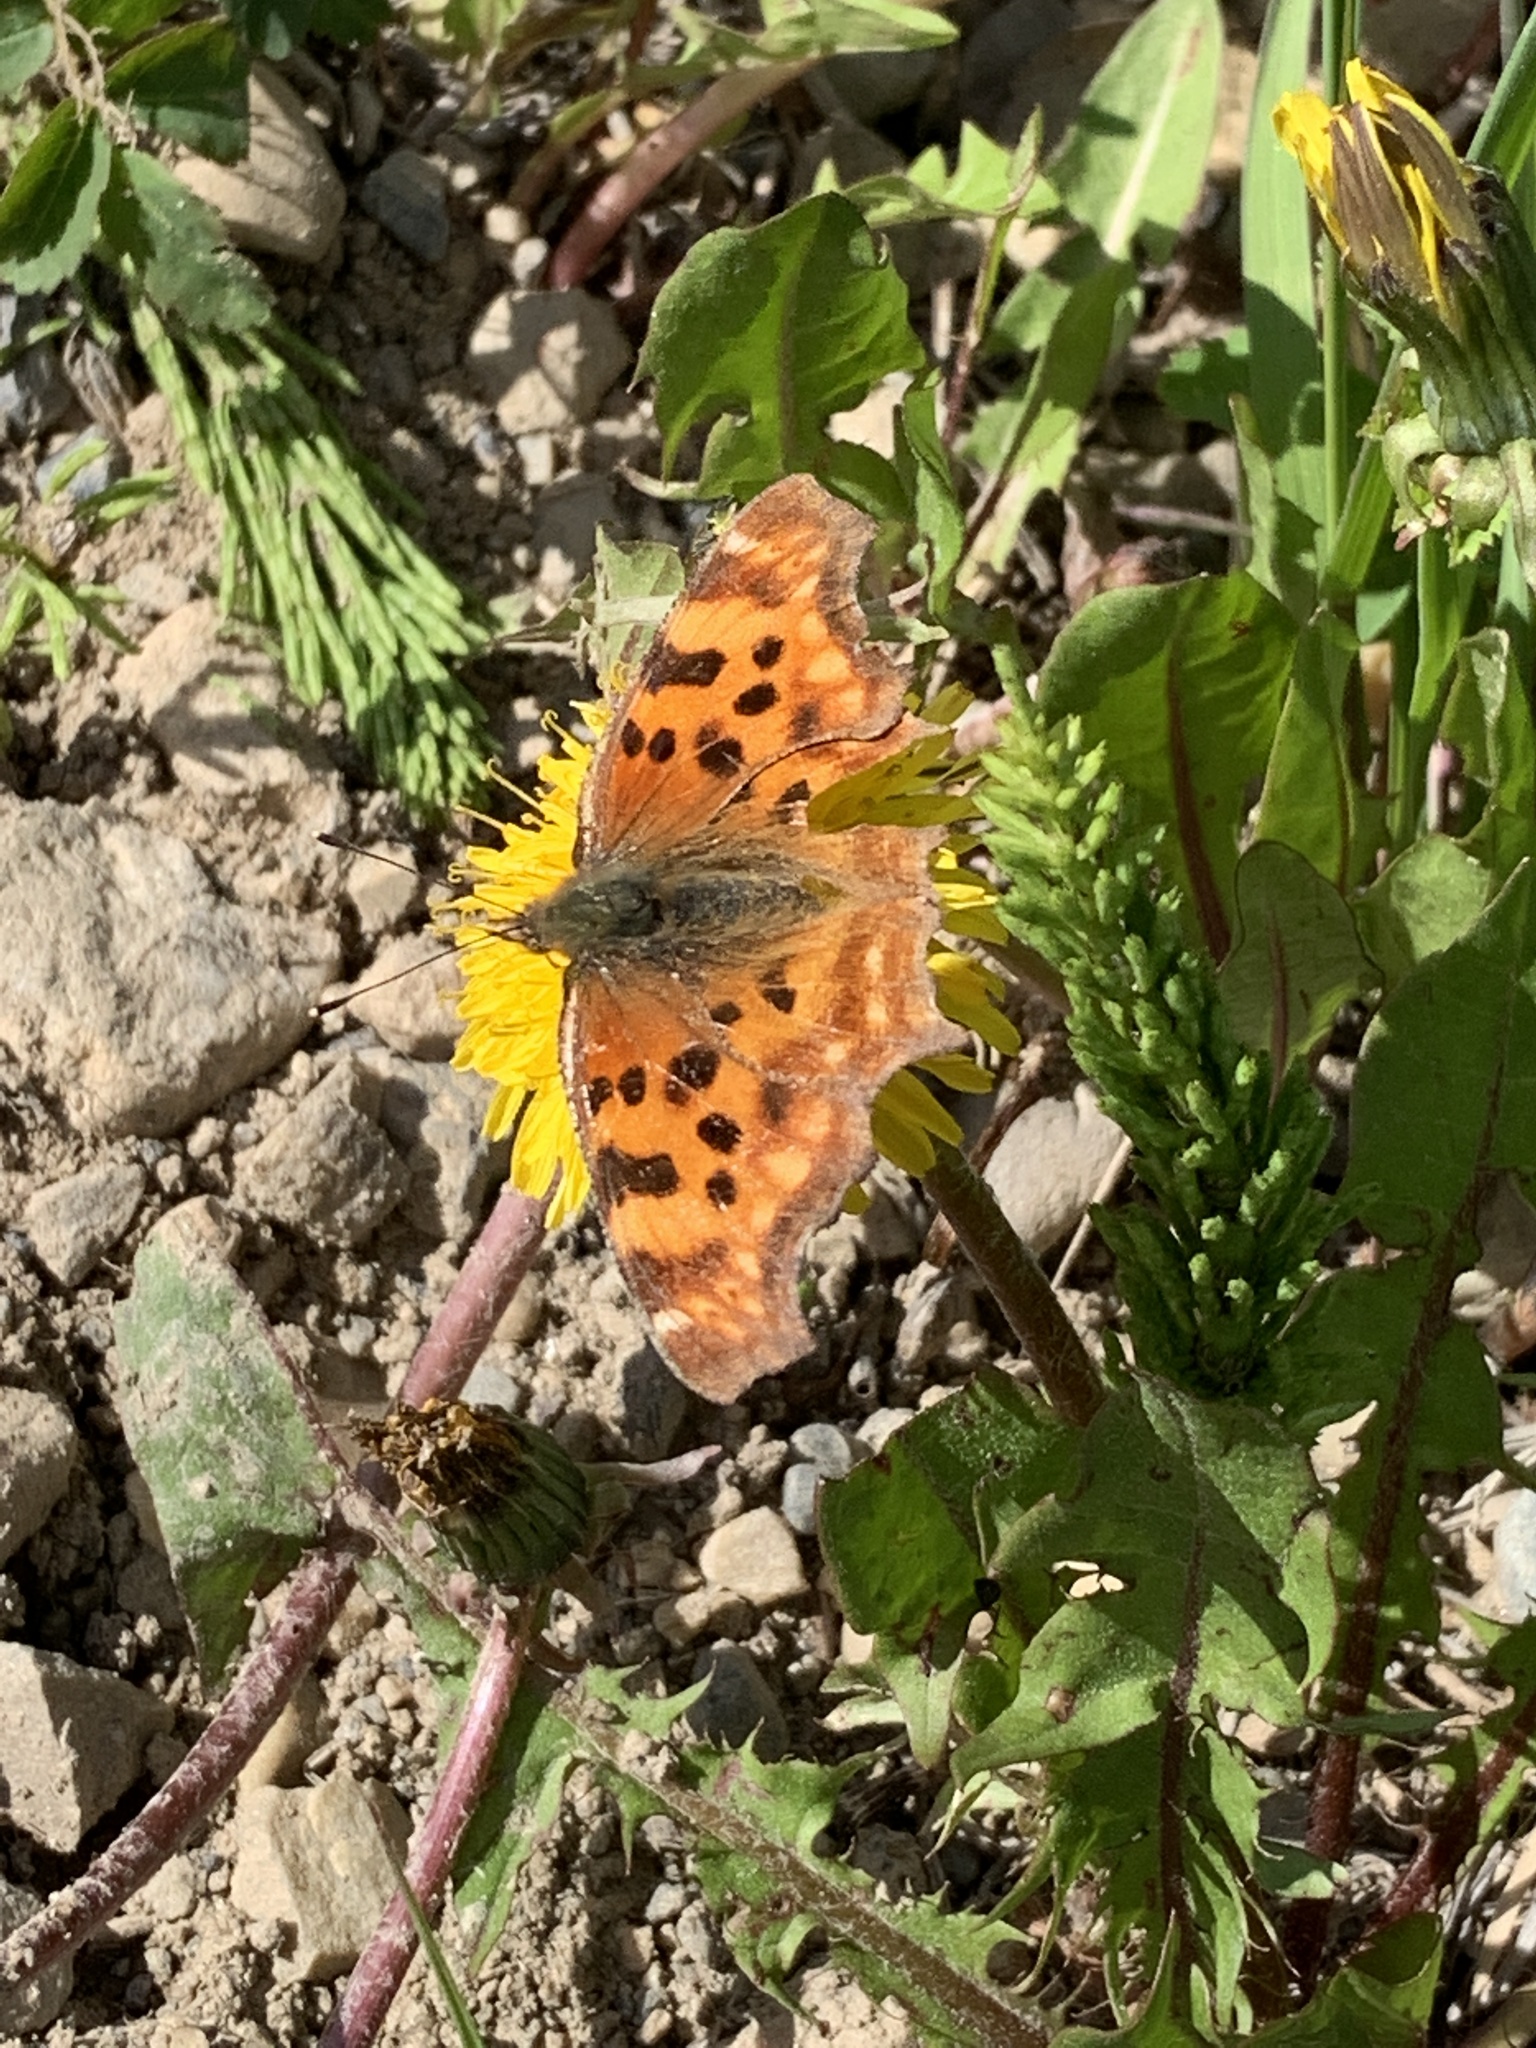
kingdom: Animalia
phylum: Arthropoda
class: Insecta
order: Lepidoptera
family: Nymphalidae
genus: Polygonia
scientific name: Polygonia satyrus
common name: Satyr angle wing
